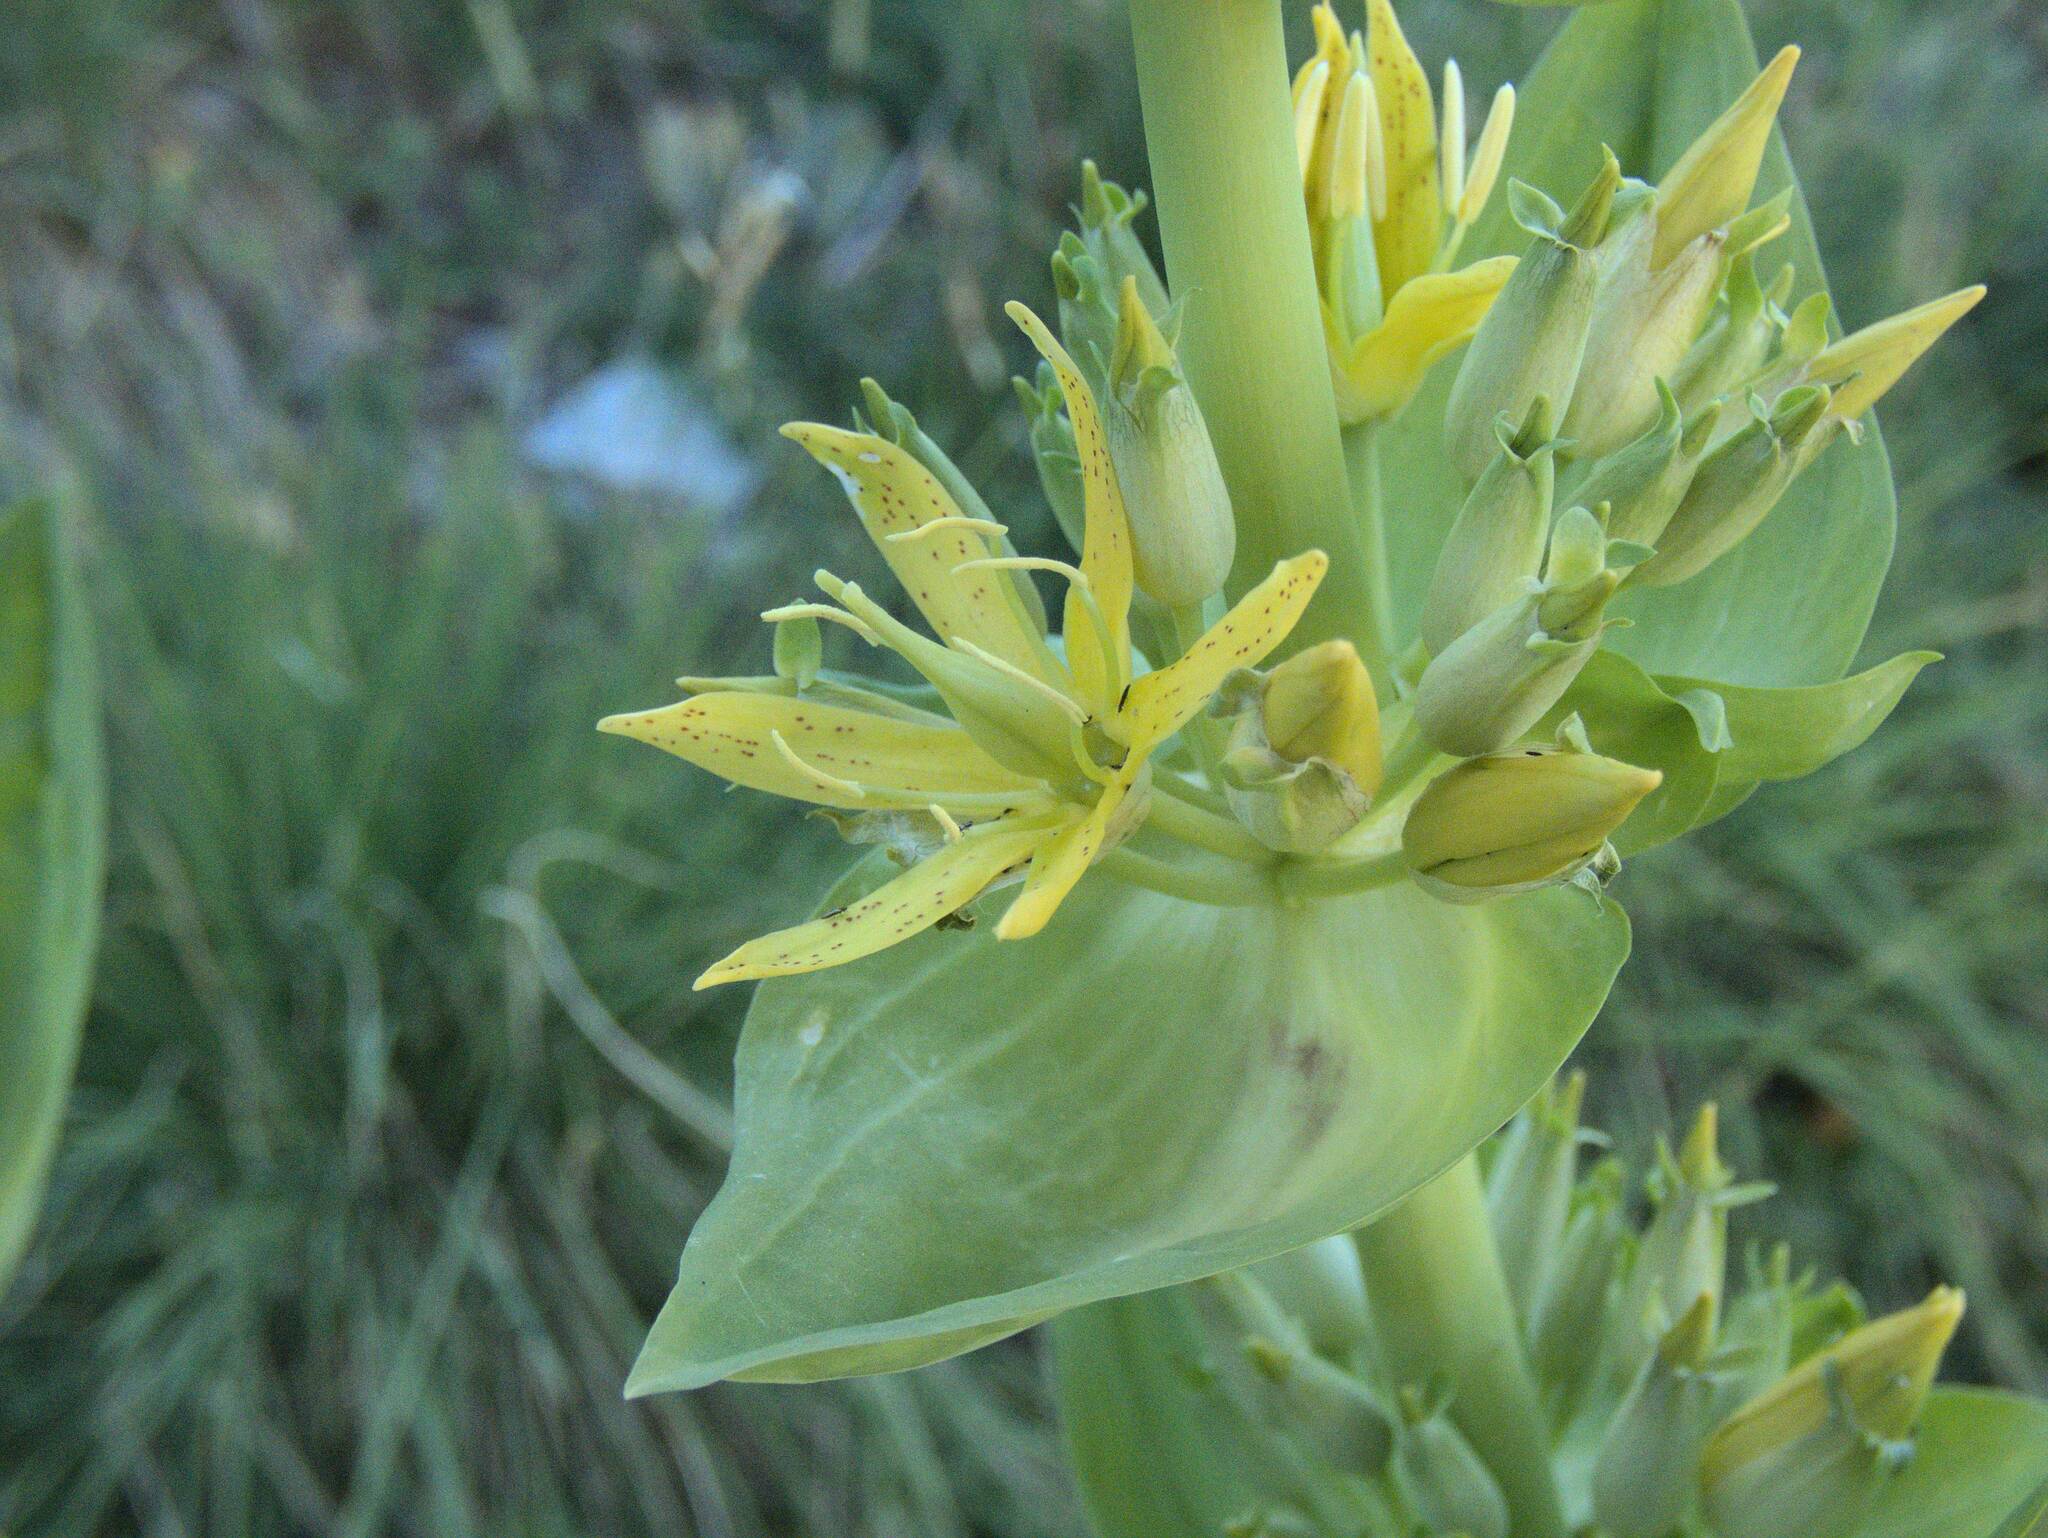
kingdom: Plantae
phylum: Tracheophyta
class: Magnoliopsida
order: Gentianales
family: Gentianaceae
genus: Gentiana
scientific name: Gentiana lutea
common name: Great yellow gentian
